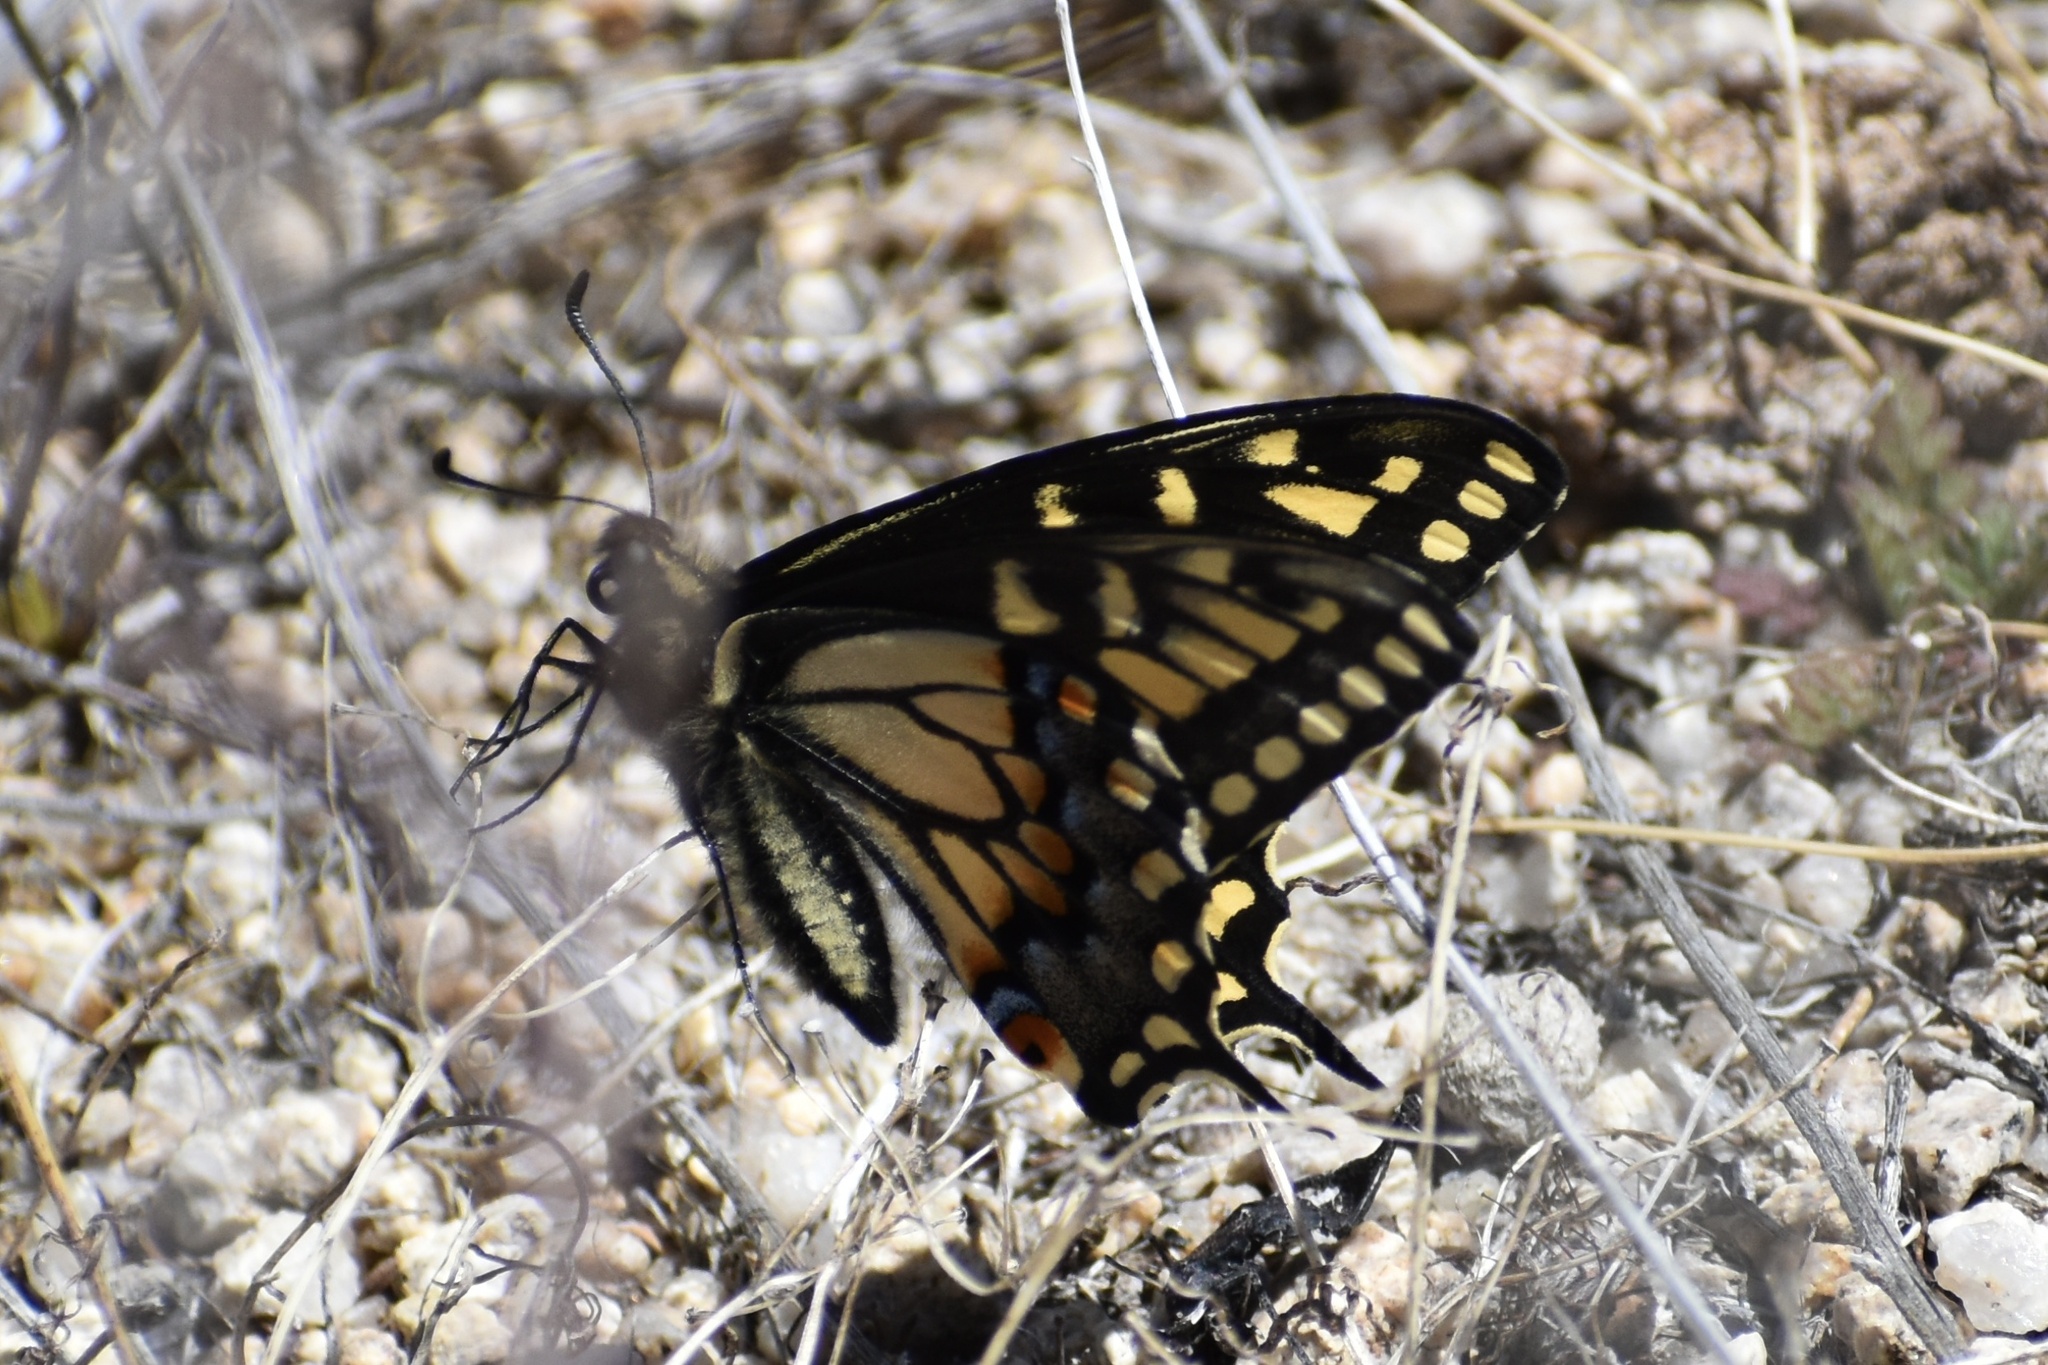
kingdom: Animalia
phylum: Arthropoda
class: Insecta
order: Lepidoptera
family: Papilionidae
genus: Papilio
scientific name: Papilio polyxenes
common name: Black swallowtail
